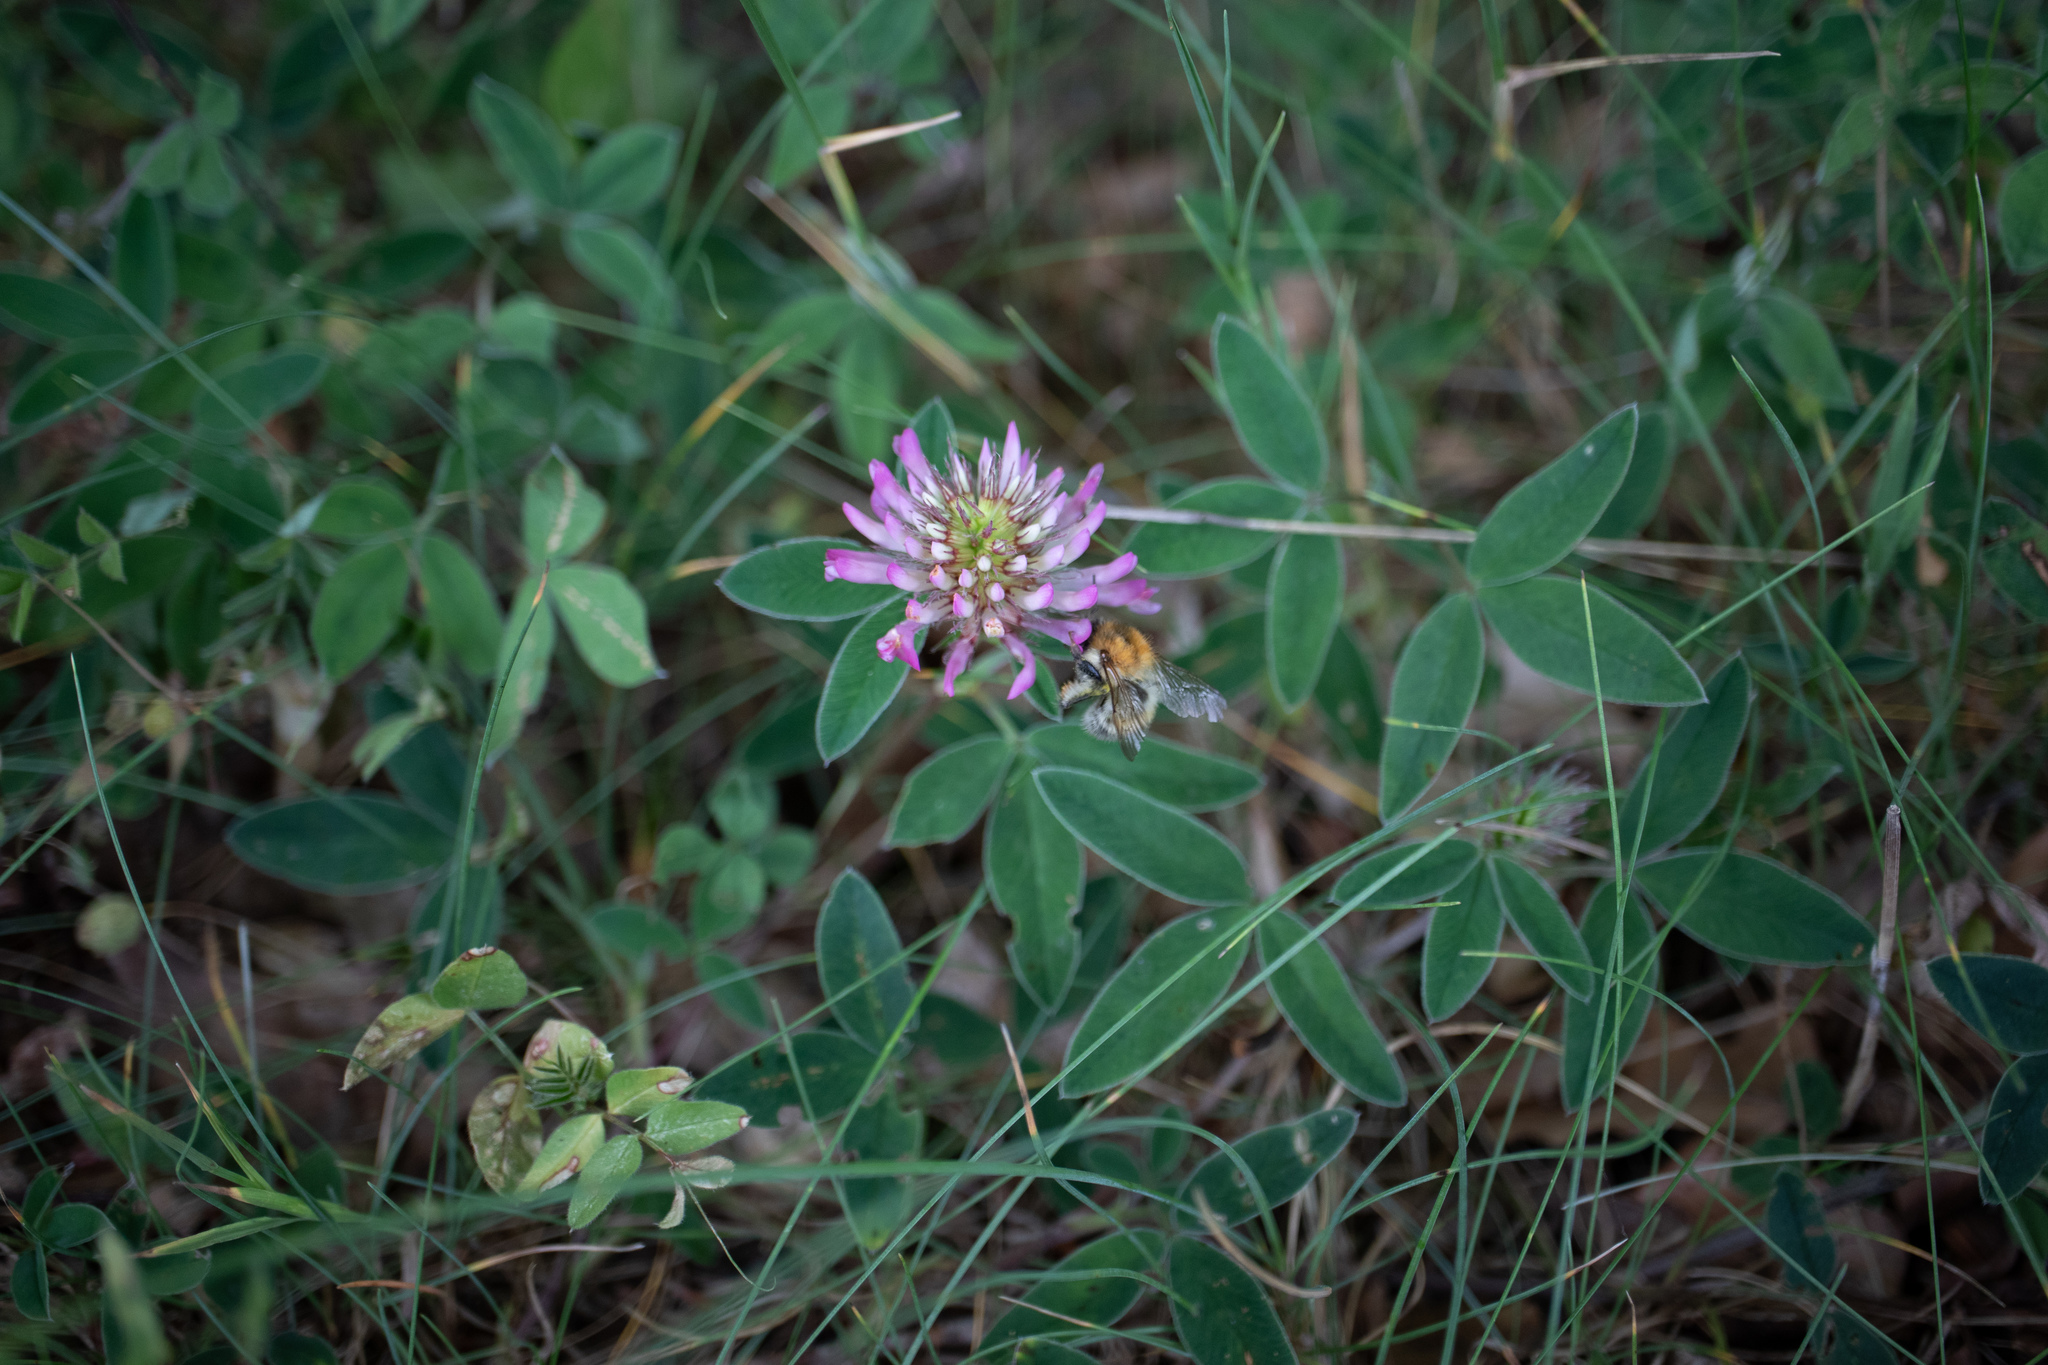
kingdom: Plantae
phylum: Tracheophyta
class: Magnoliopsida
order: Fabales
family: Fabaceae
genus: Trifolium
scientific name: Trifolium medium
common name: Zigzag clover
